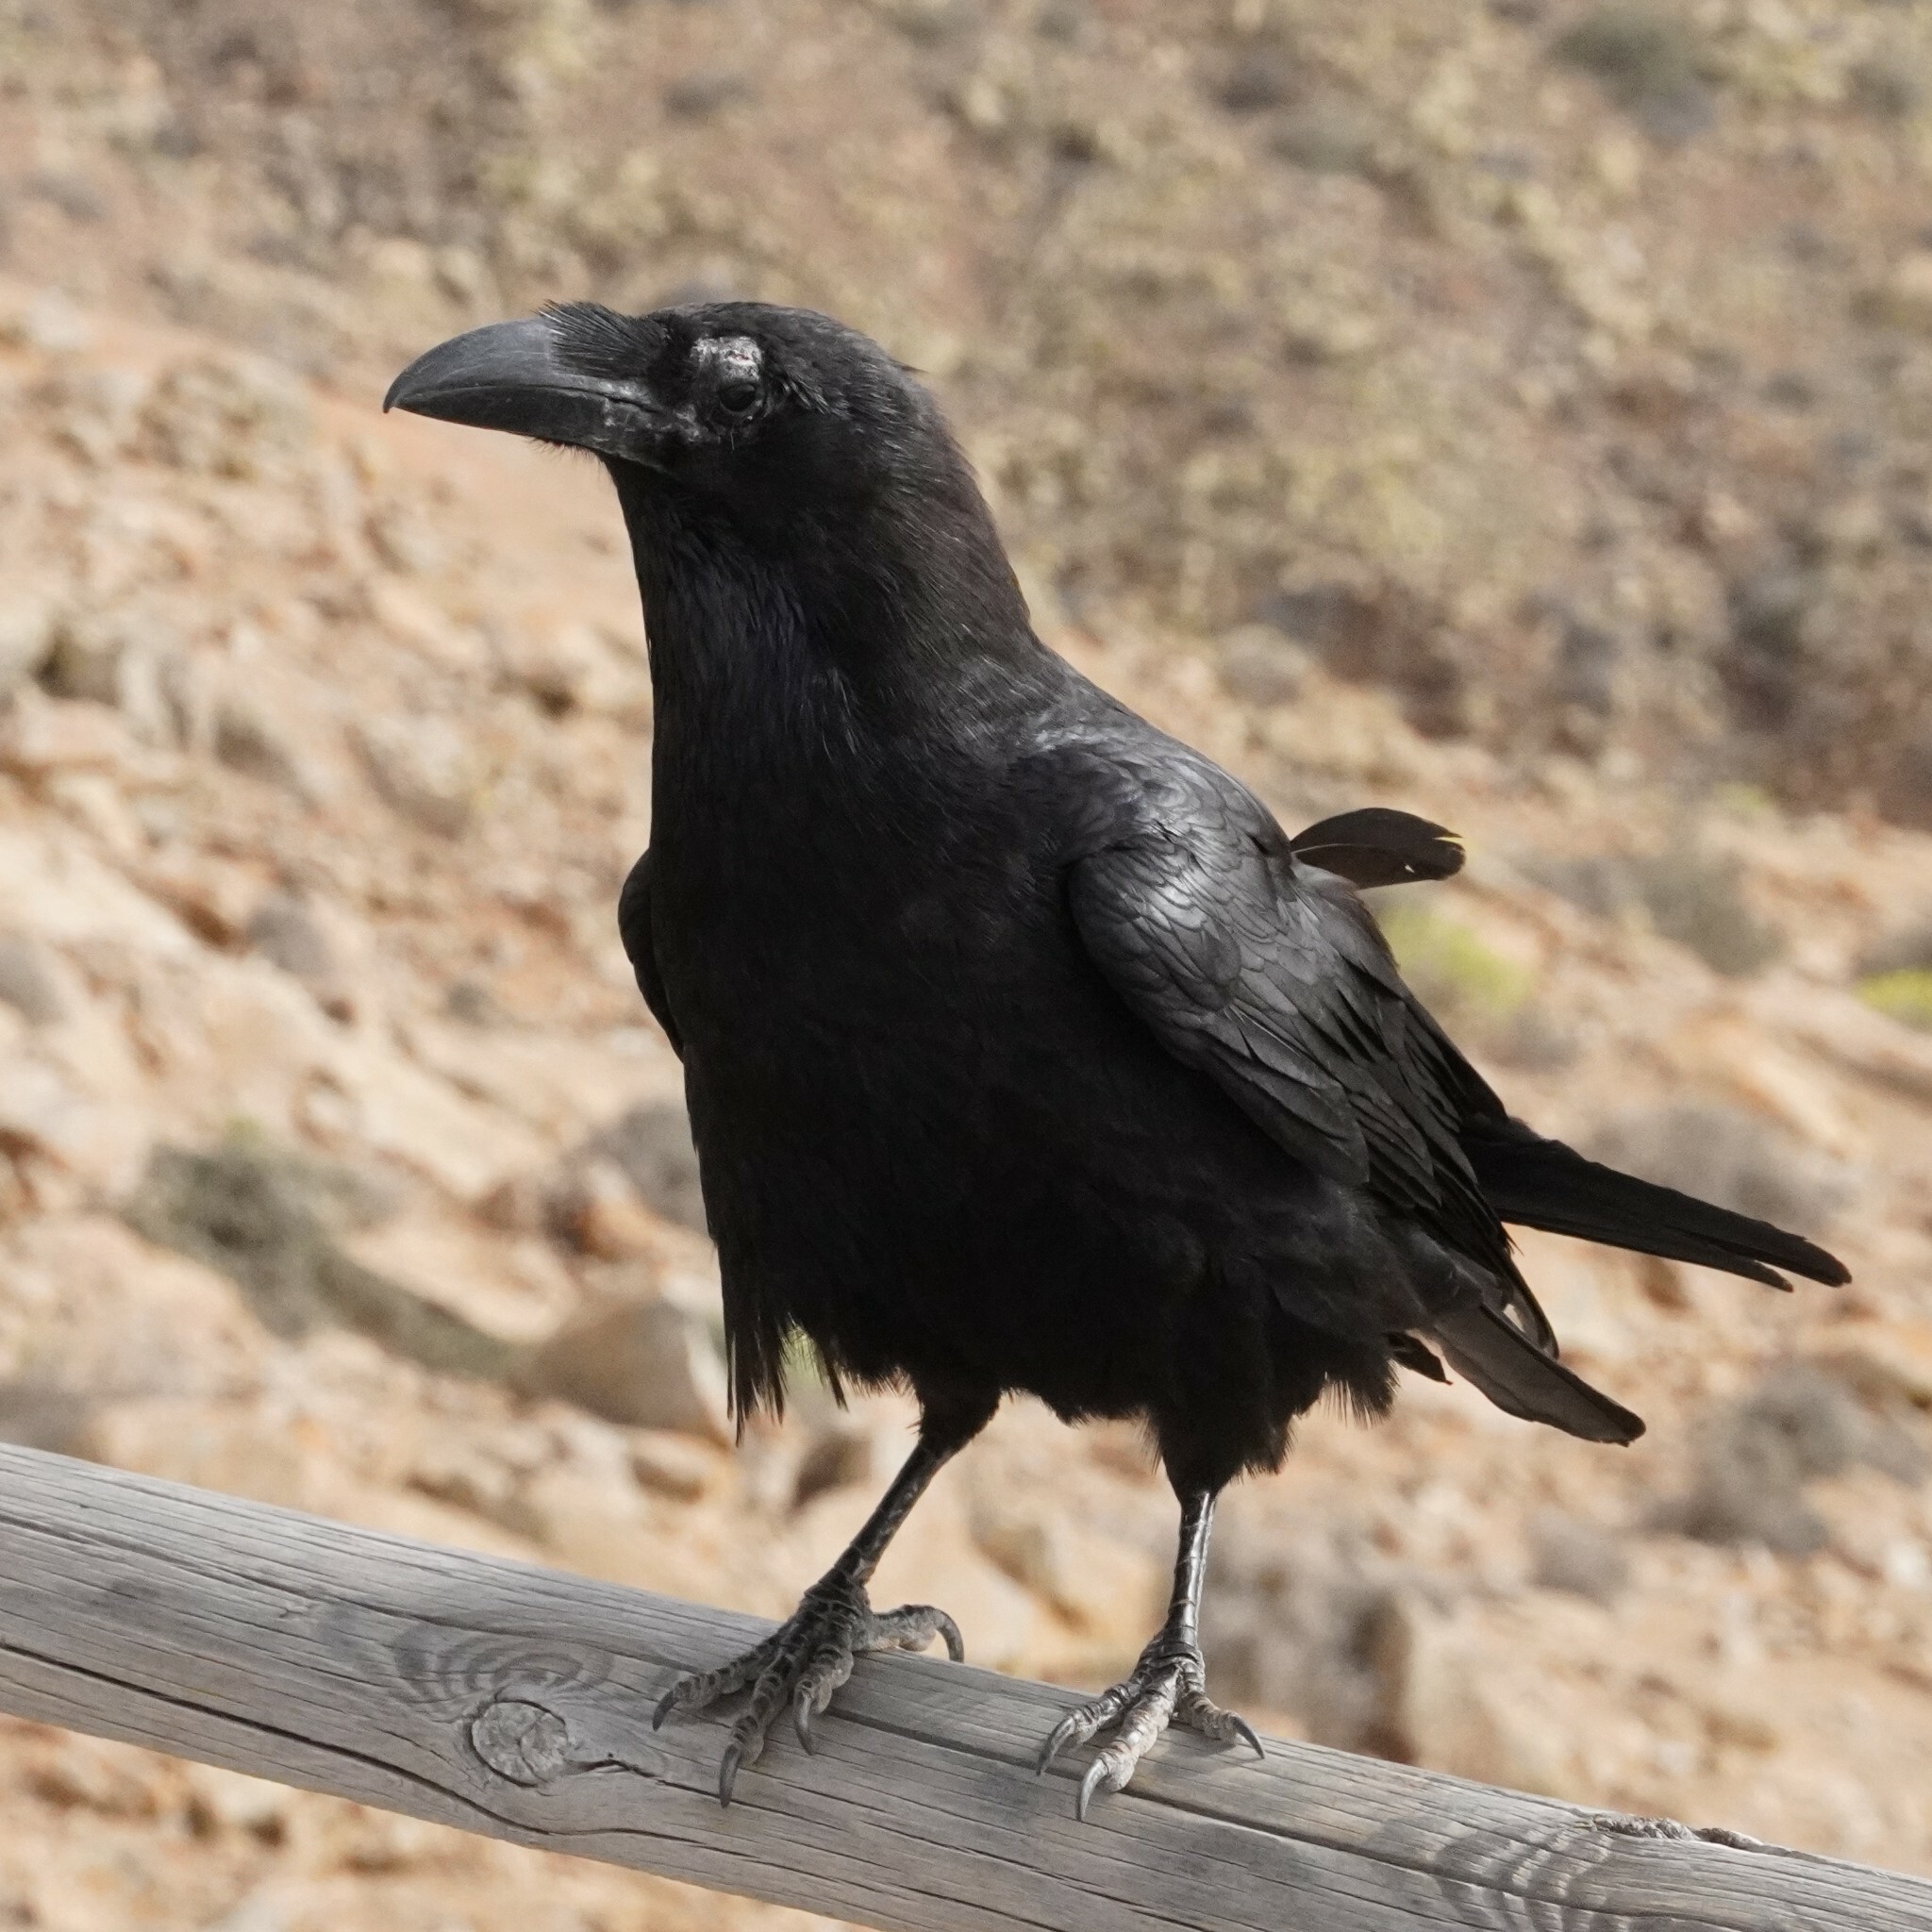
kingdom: Animalia
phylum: Chordata
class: Aves
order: Passeriformes
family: Corvidae
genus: Corvus
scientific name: Corvus corax
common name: Common raven
